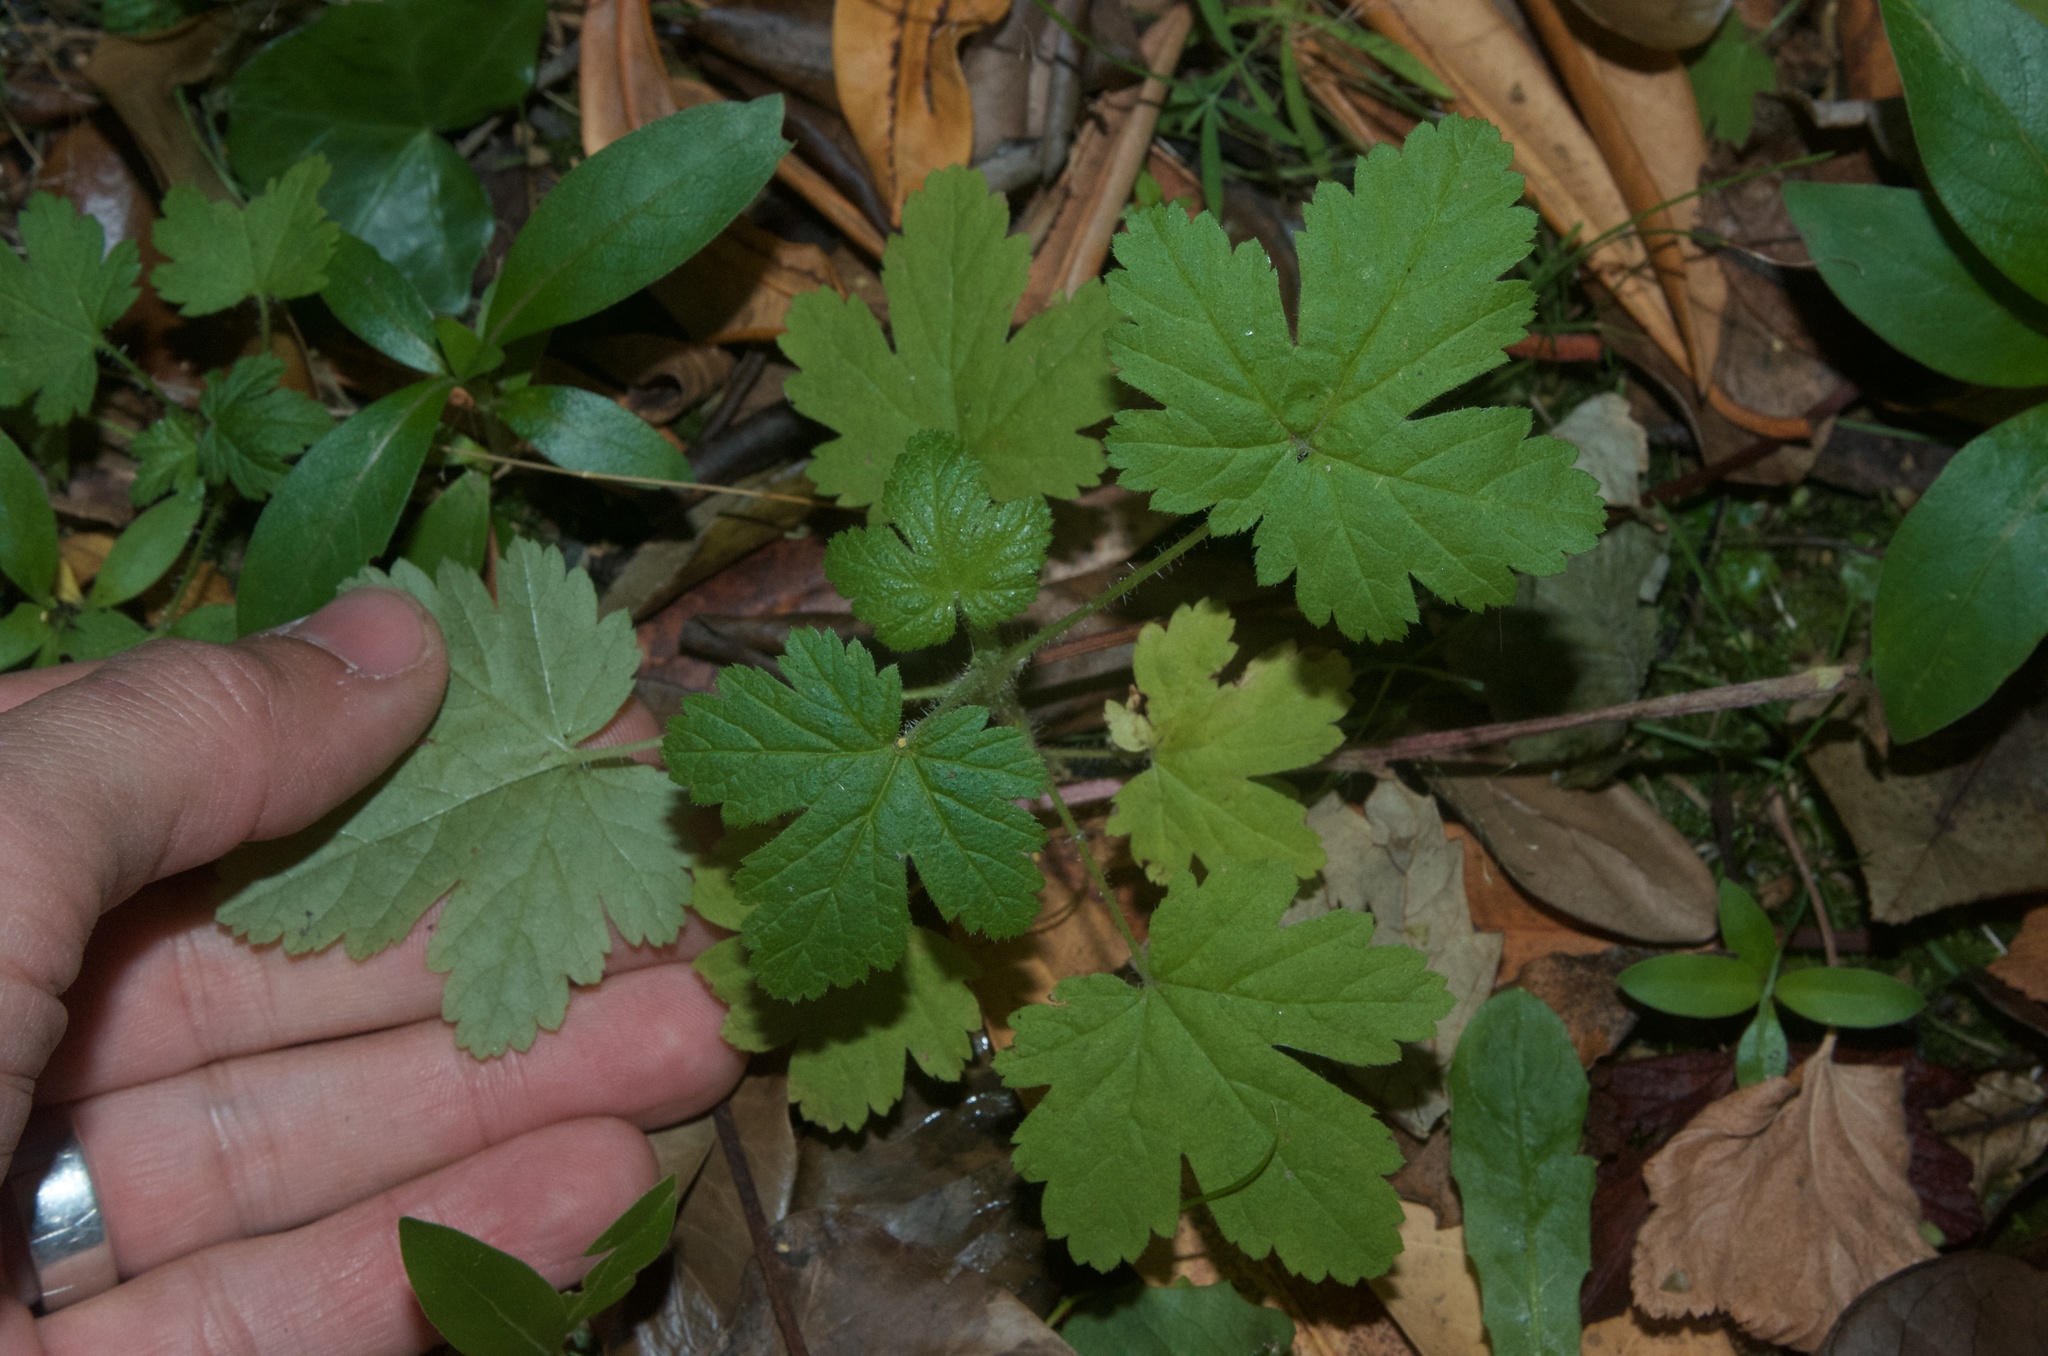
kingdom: Plantae
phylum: Tracheophyta
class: Magnoliopsida
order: Saxifragales
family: Grossulariaceae
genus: Ribes
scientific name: Ribes sanguineum
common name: Flowering currant
